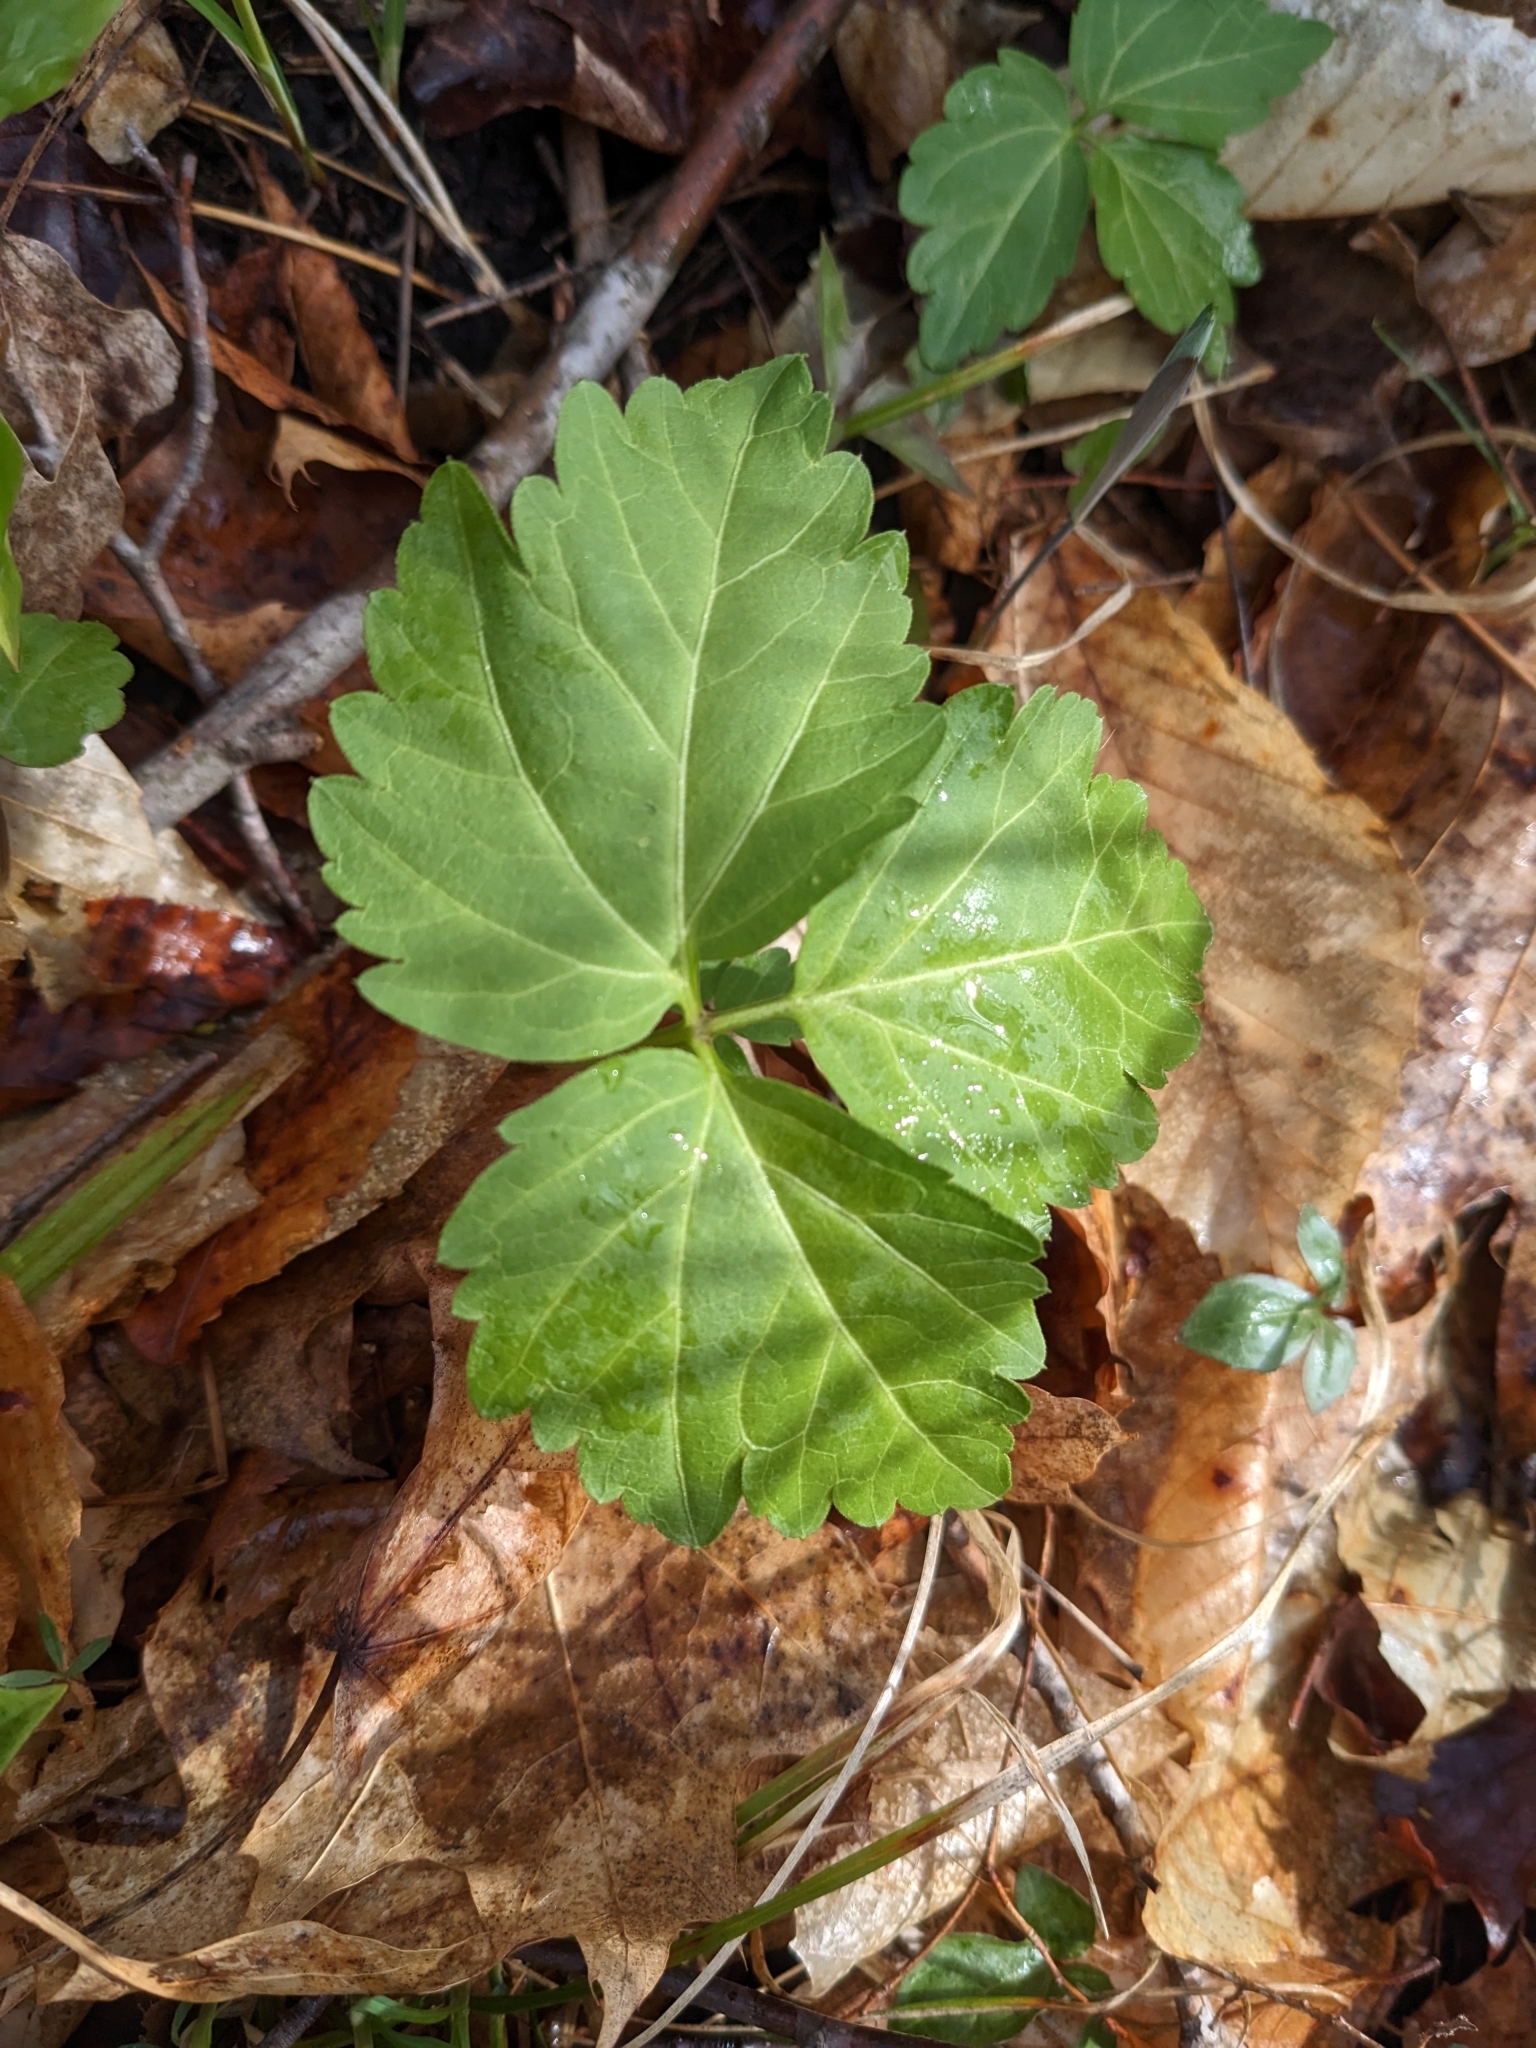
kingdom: Plantae
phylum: Tracheophyta
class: Magnoliopsida
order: Brassicales
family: Brassicaceae
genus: Cardamine
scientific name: Cardamine diphylla
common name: Broad-leaved toothwort
